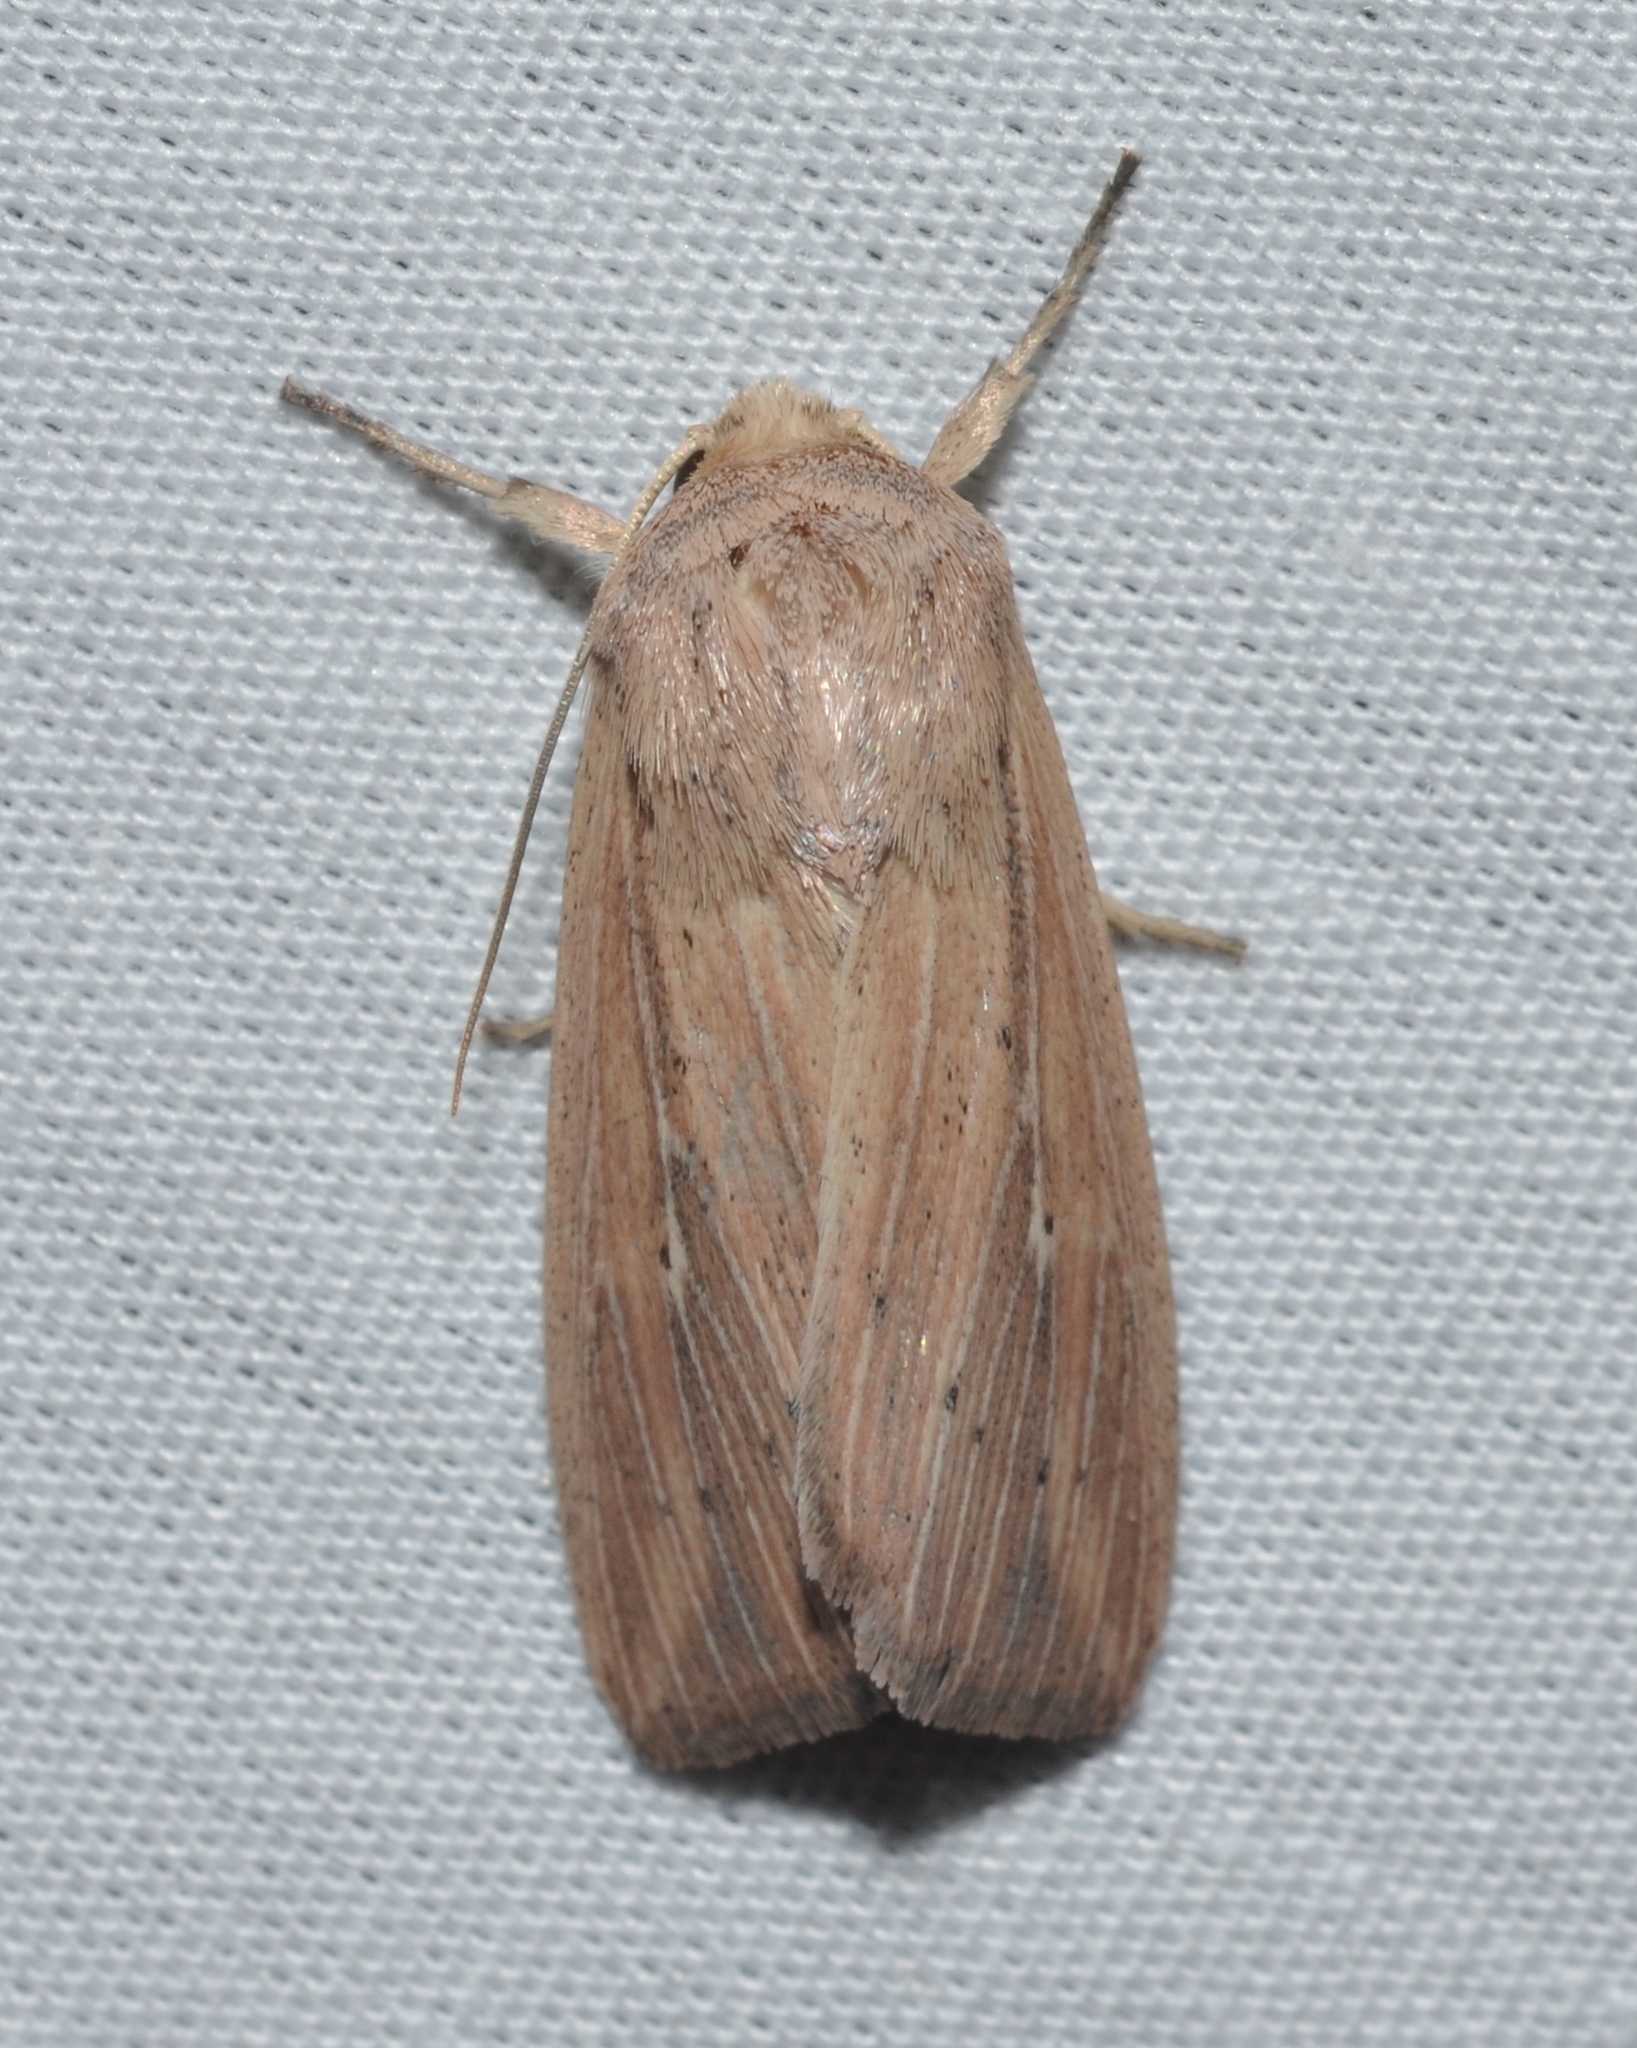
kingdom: Animalia
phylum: Arthropoda
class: Insecta
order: Lepidoptera
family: Noctuidae
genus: Leucania
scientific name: Leucania linda
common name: Linda's wainscot
